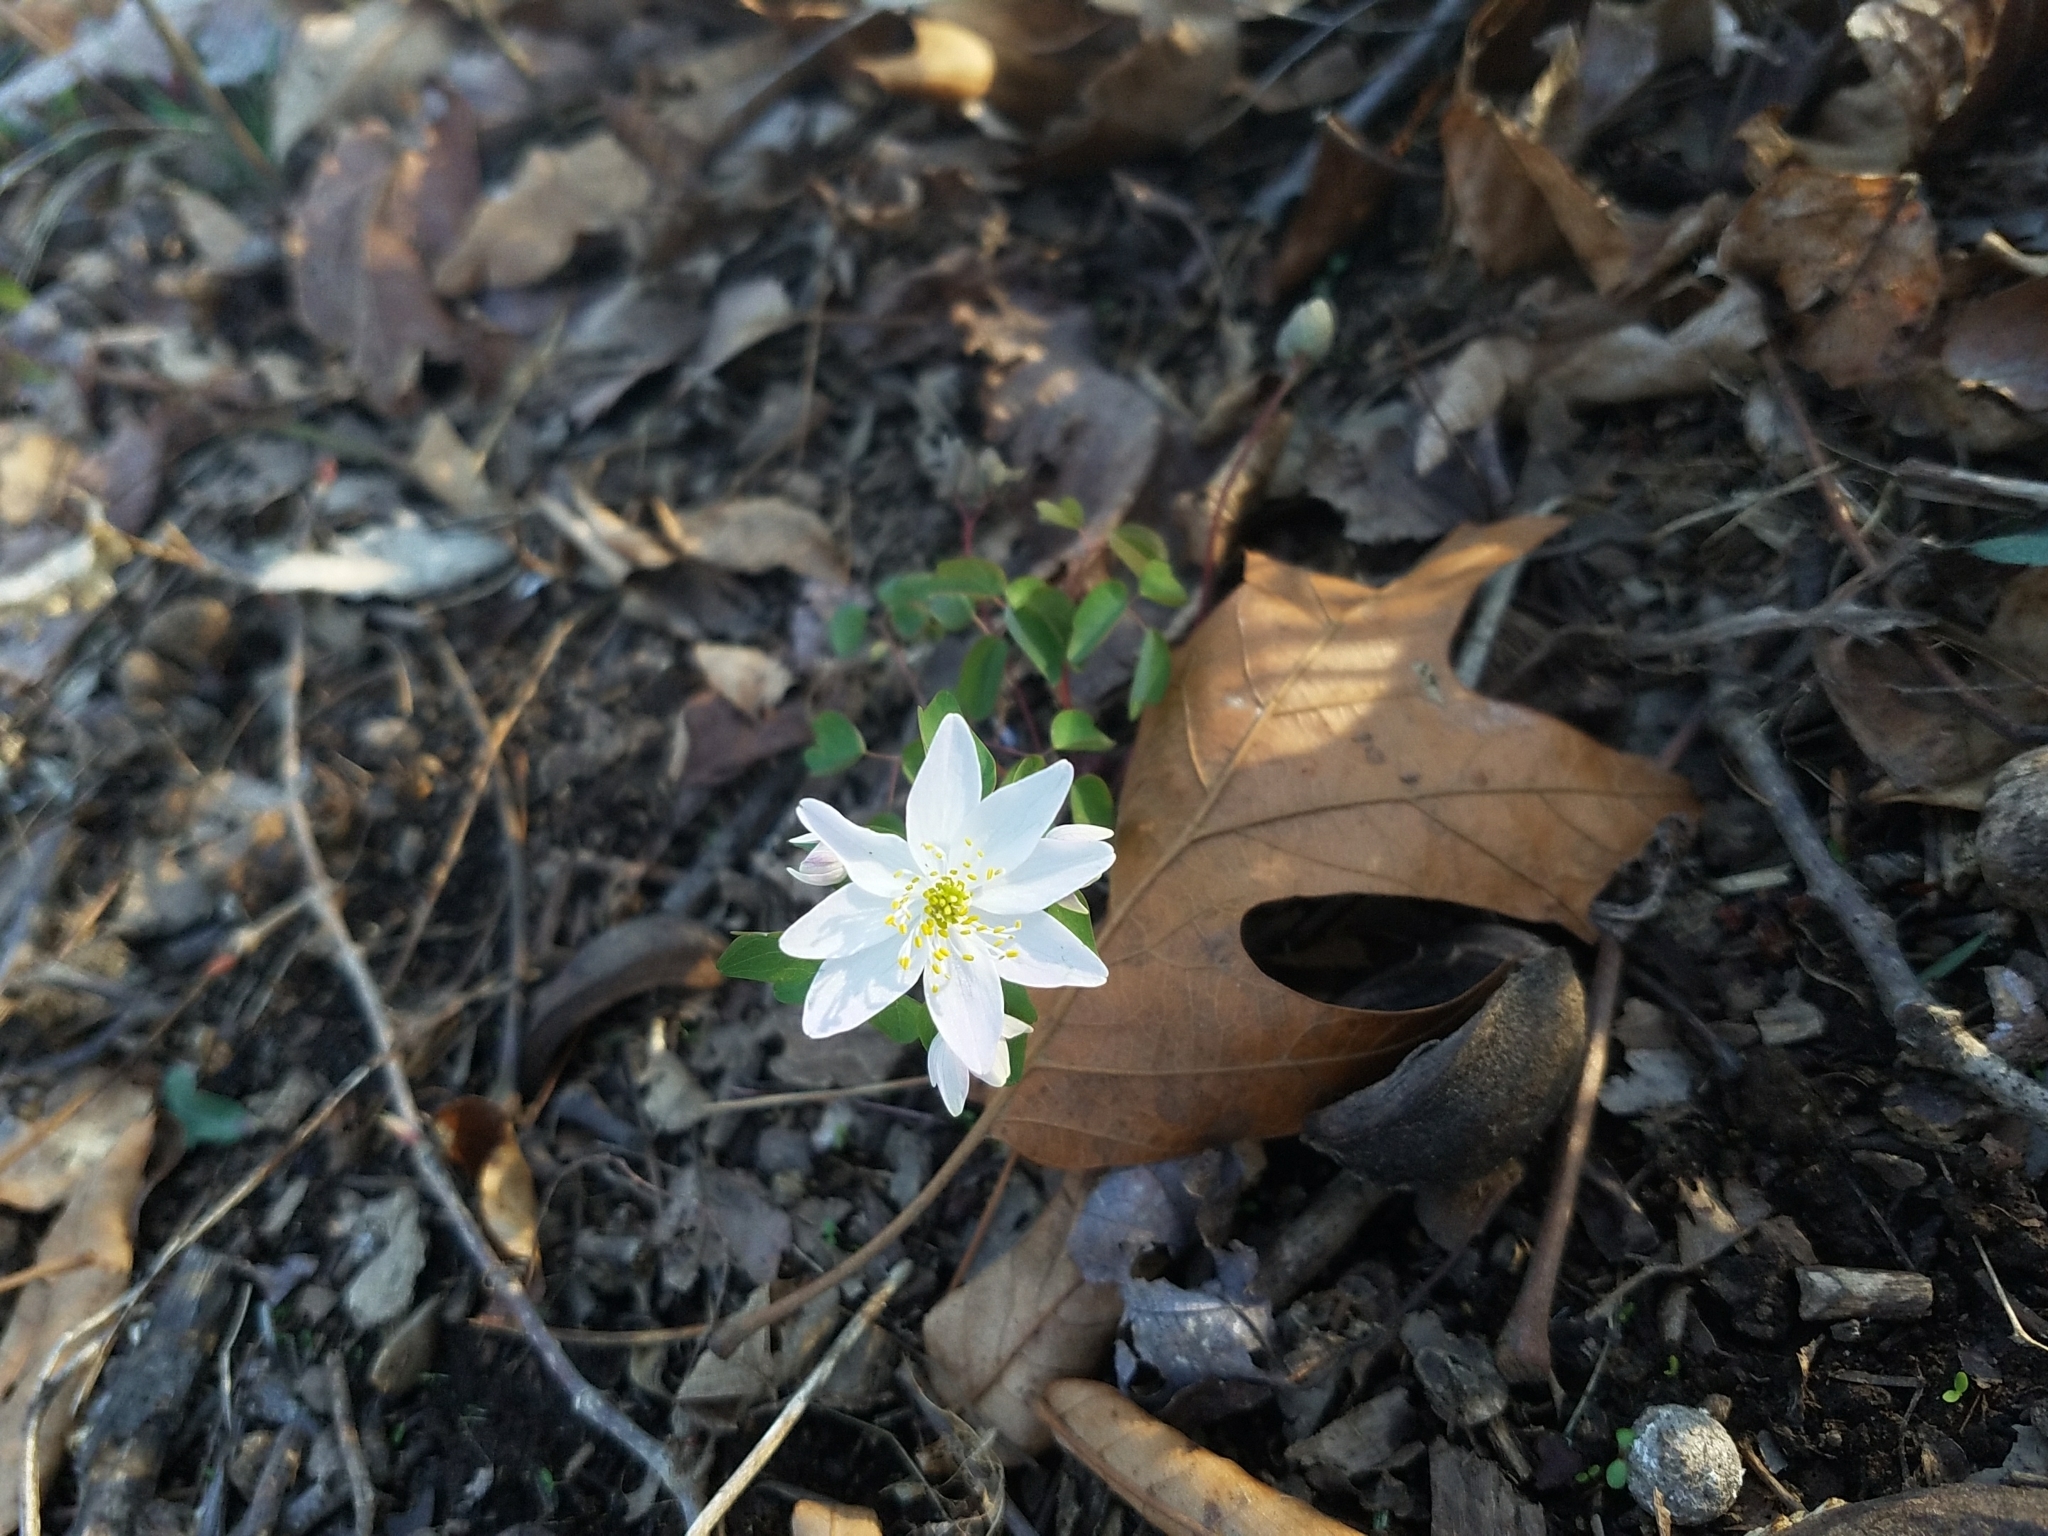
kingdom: Plantae
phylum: Tracheophyta
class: Magnoliopsida
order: Ranunculales
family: Ranunculaceae
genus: Thalictrum
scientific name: Thalictrum thalictroides
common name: Rue-anemone
